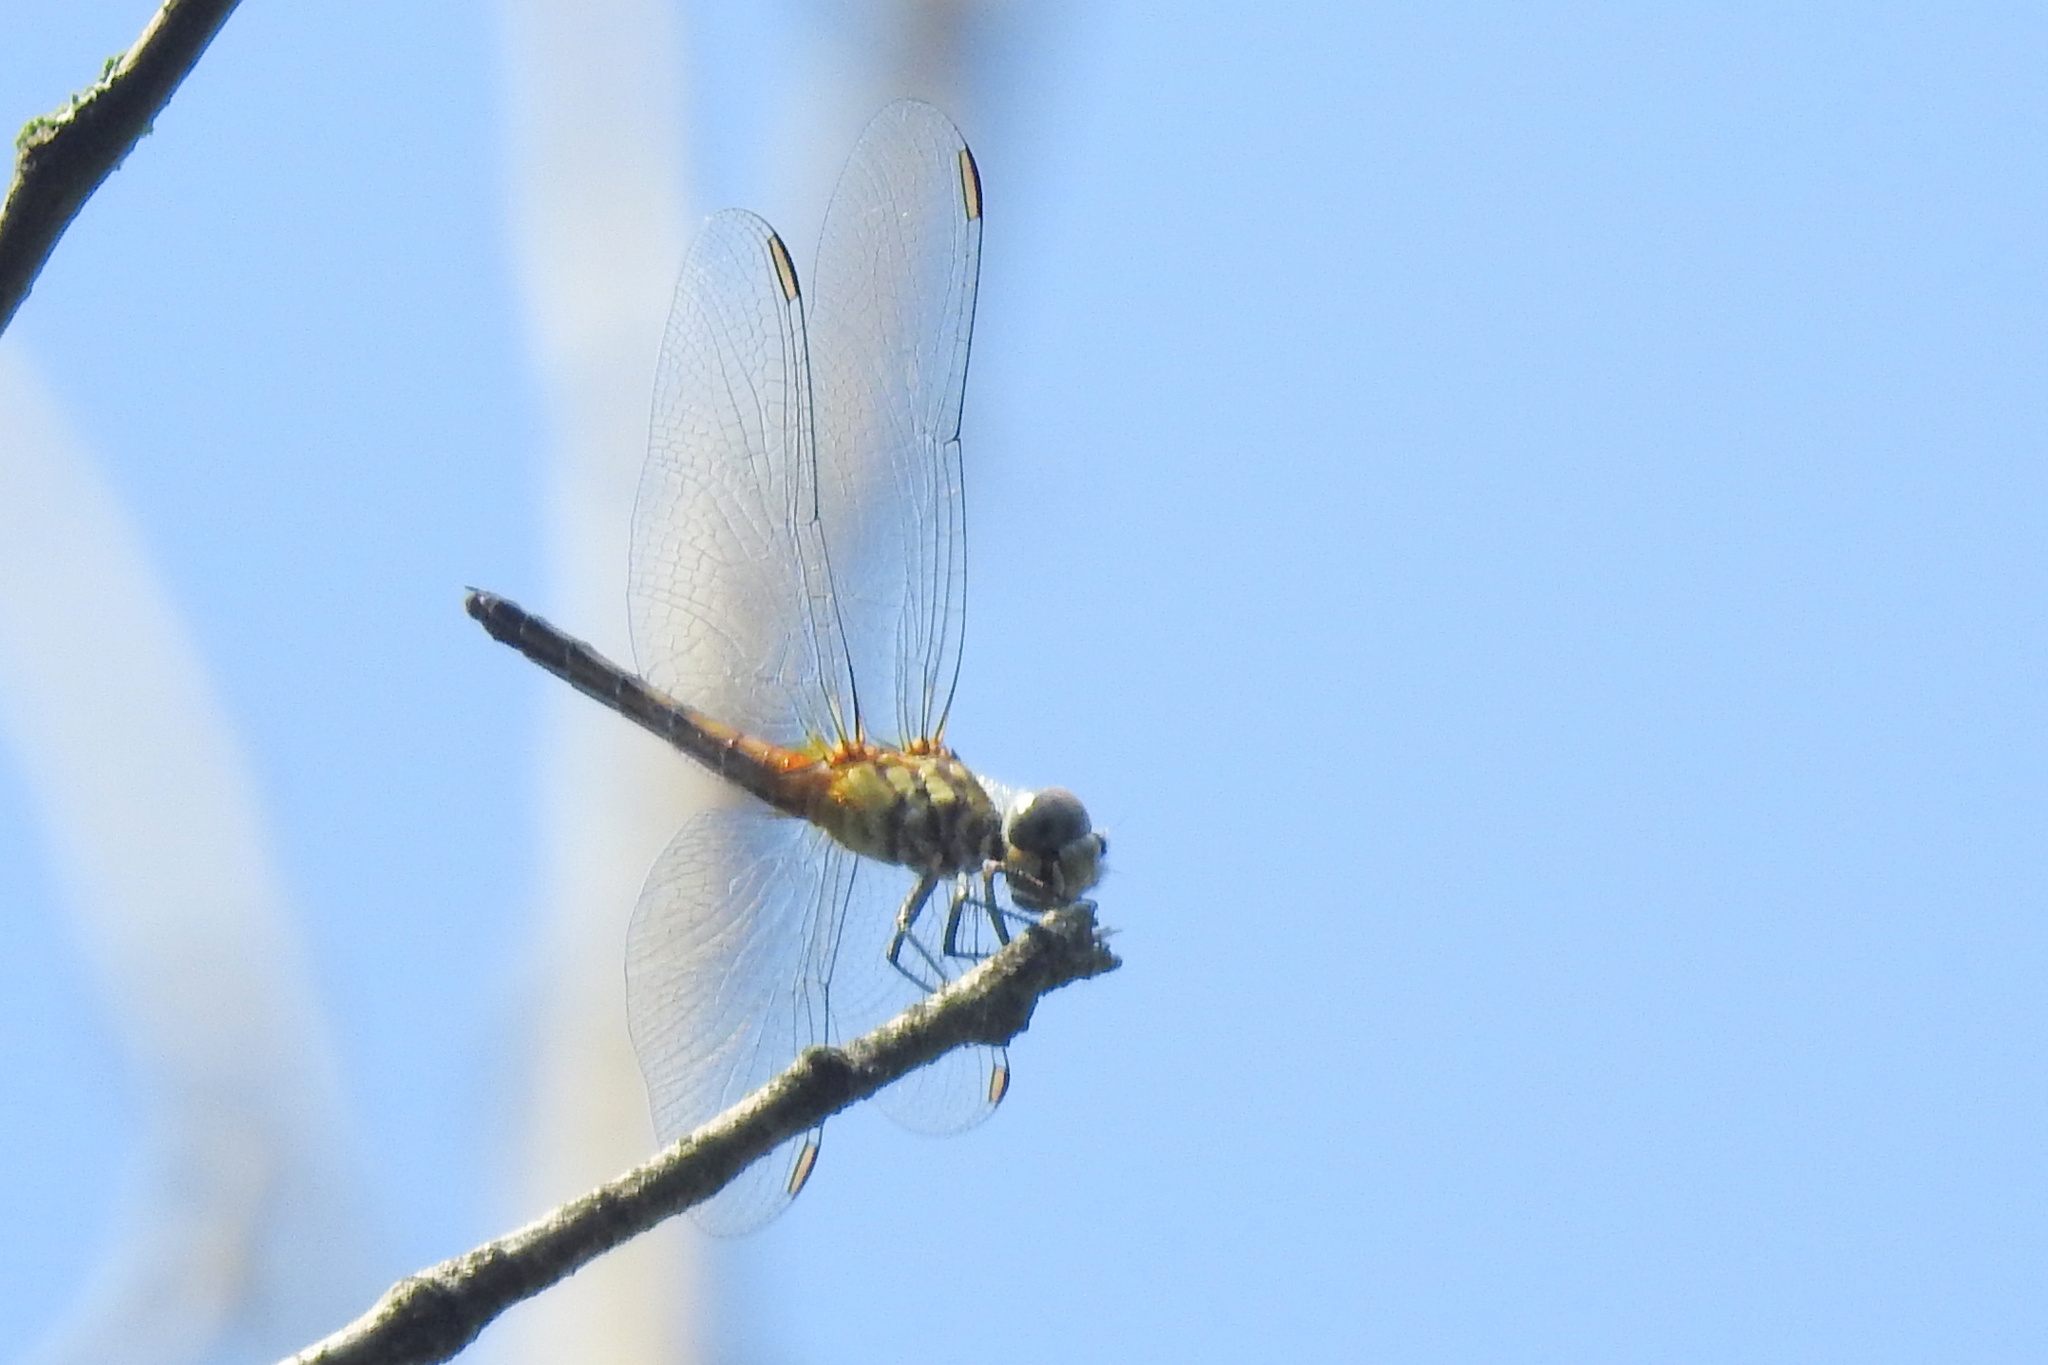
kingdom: Animalia
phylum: Arthropoda
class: Insecta
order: Odonata
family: Libellulidae
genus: Pachydiplax
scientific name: Pachydiplax longipennis
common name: Blue dasher
